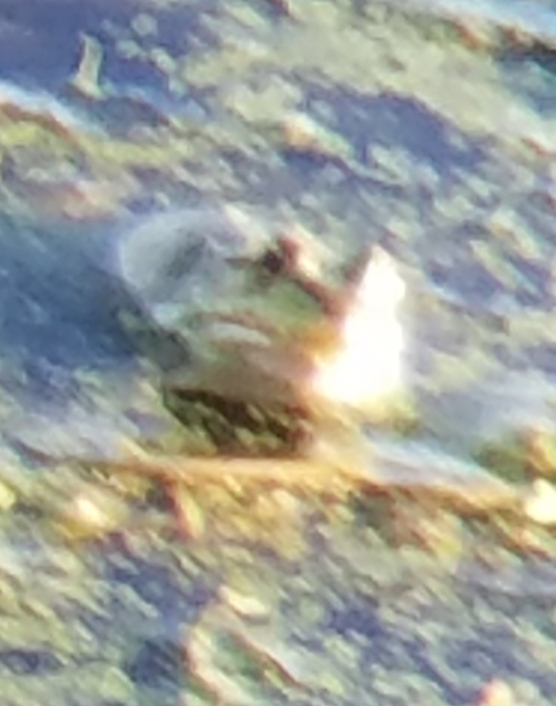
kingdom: Animalia
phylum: Chordata
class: Amphibia
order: Anura
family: Ranidae
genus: Lithobates
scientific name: Lithobates catesbeianus
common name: American bullfrog
